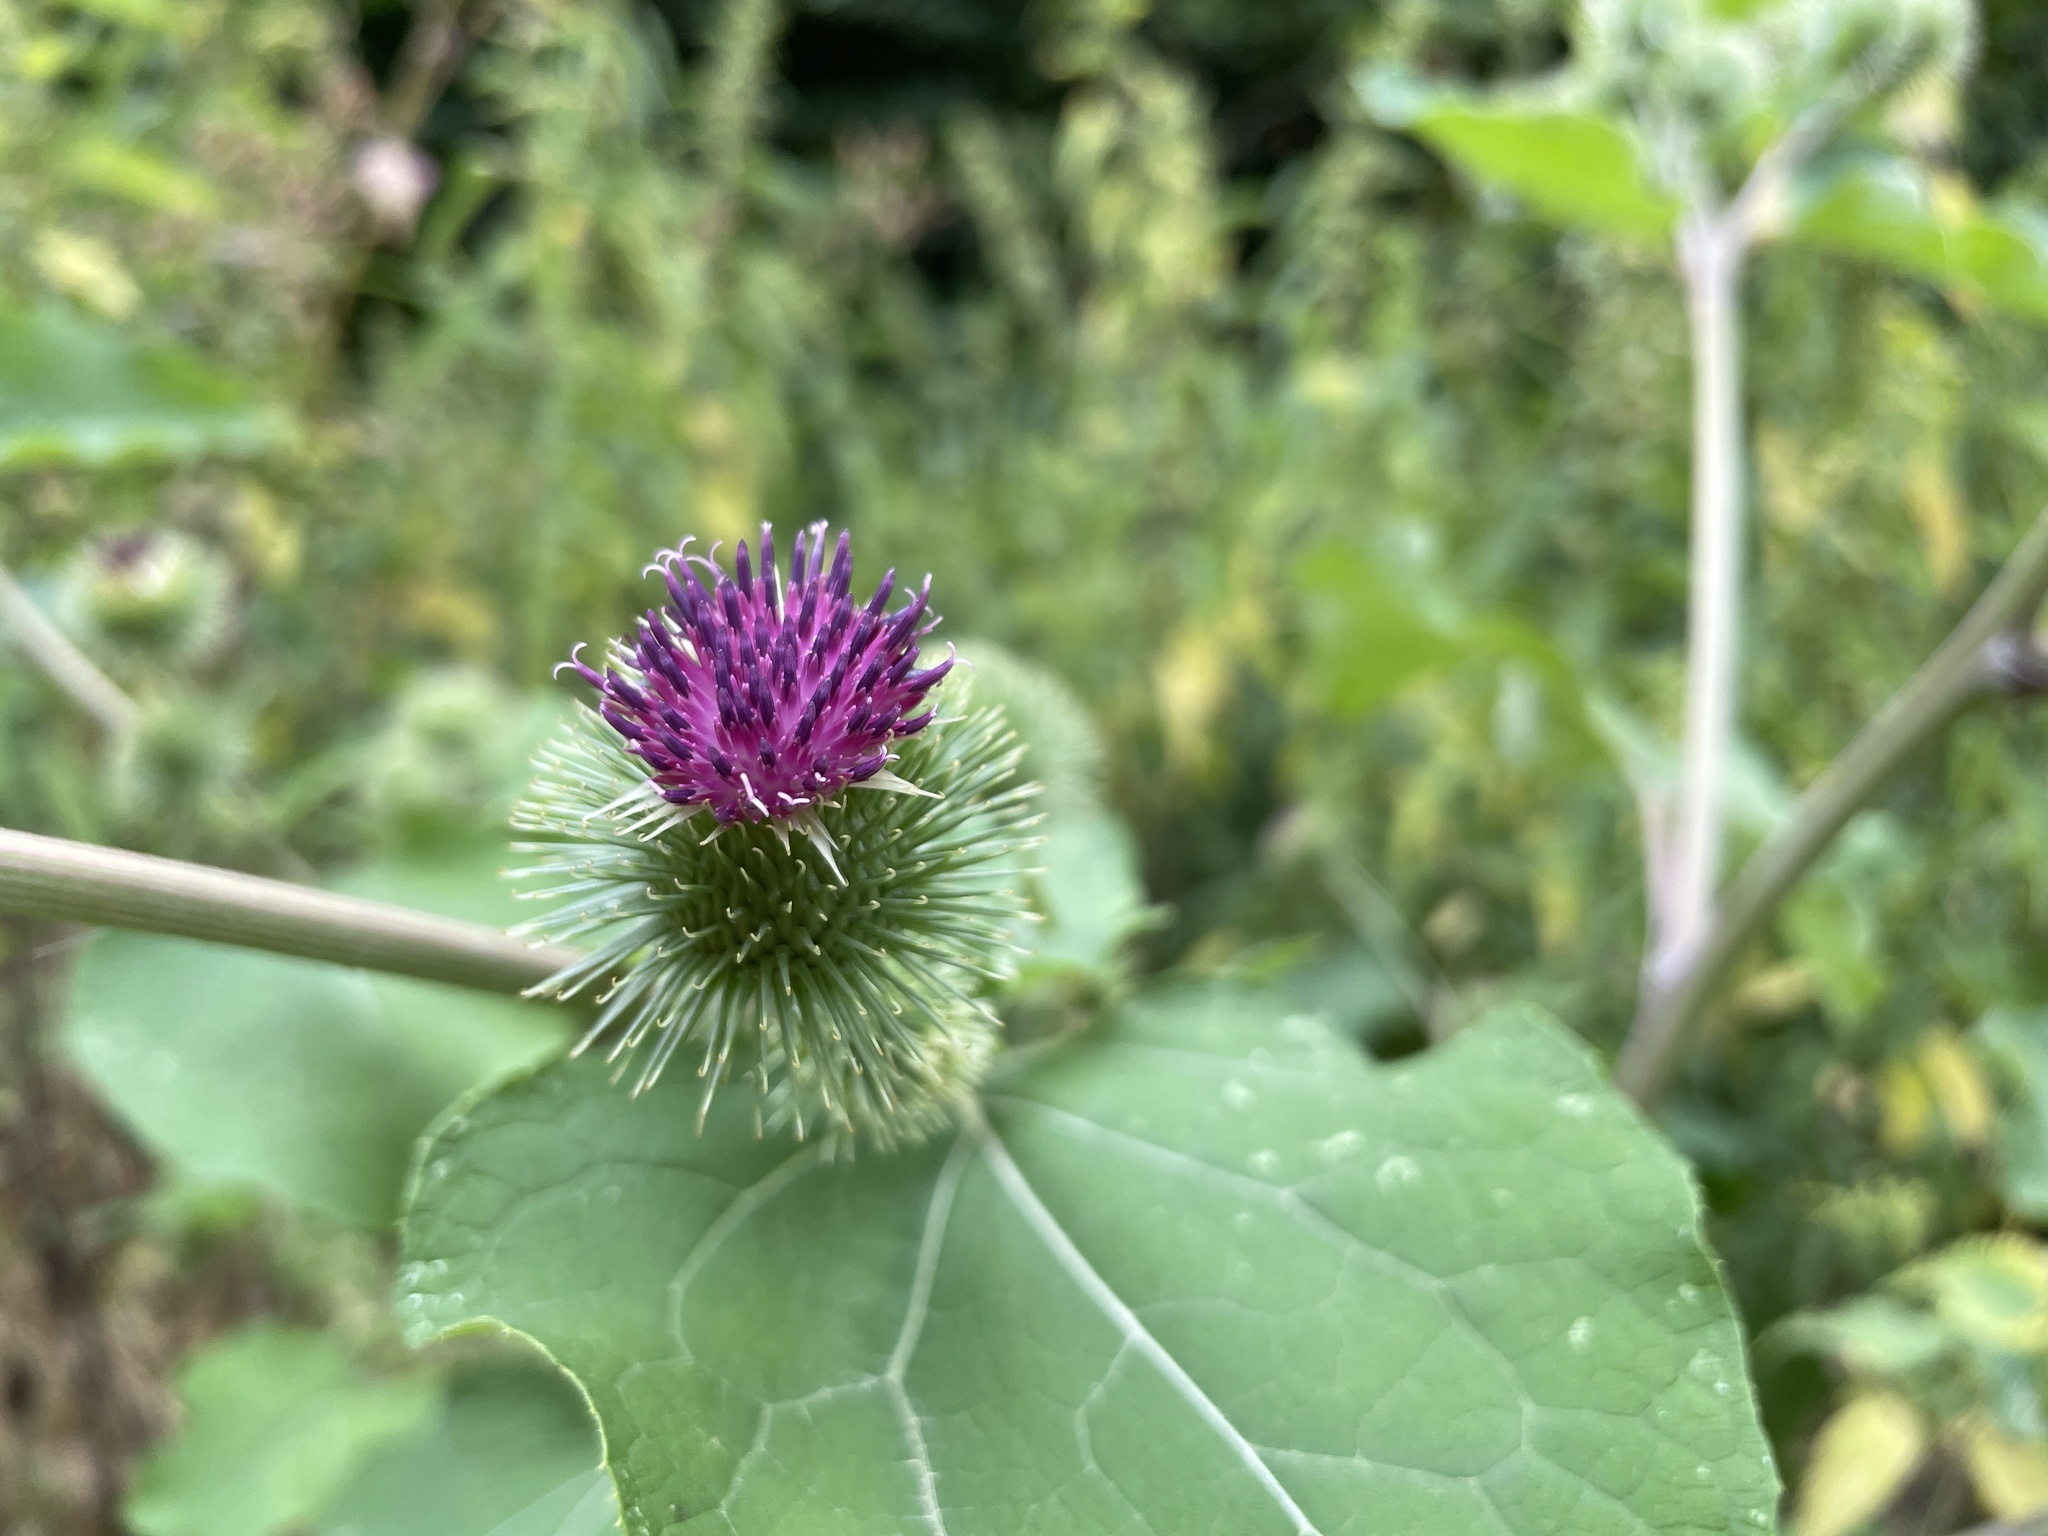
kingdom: Plantae
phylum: Tracheophyta
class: Magnoliopsida
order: Asterales
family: Asteraceae
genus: Arctium
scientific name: Arctium lappa
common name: Greater burdock
